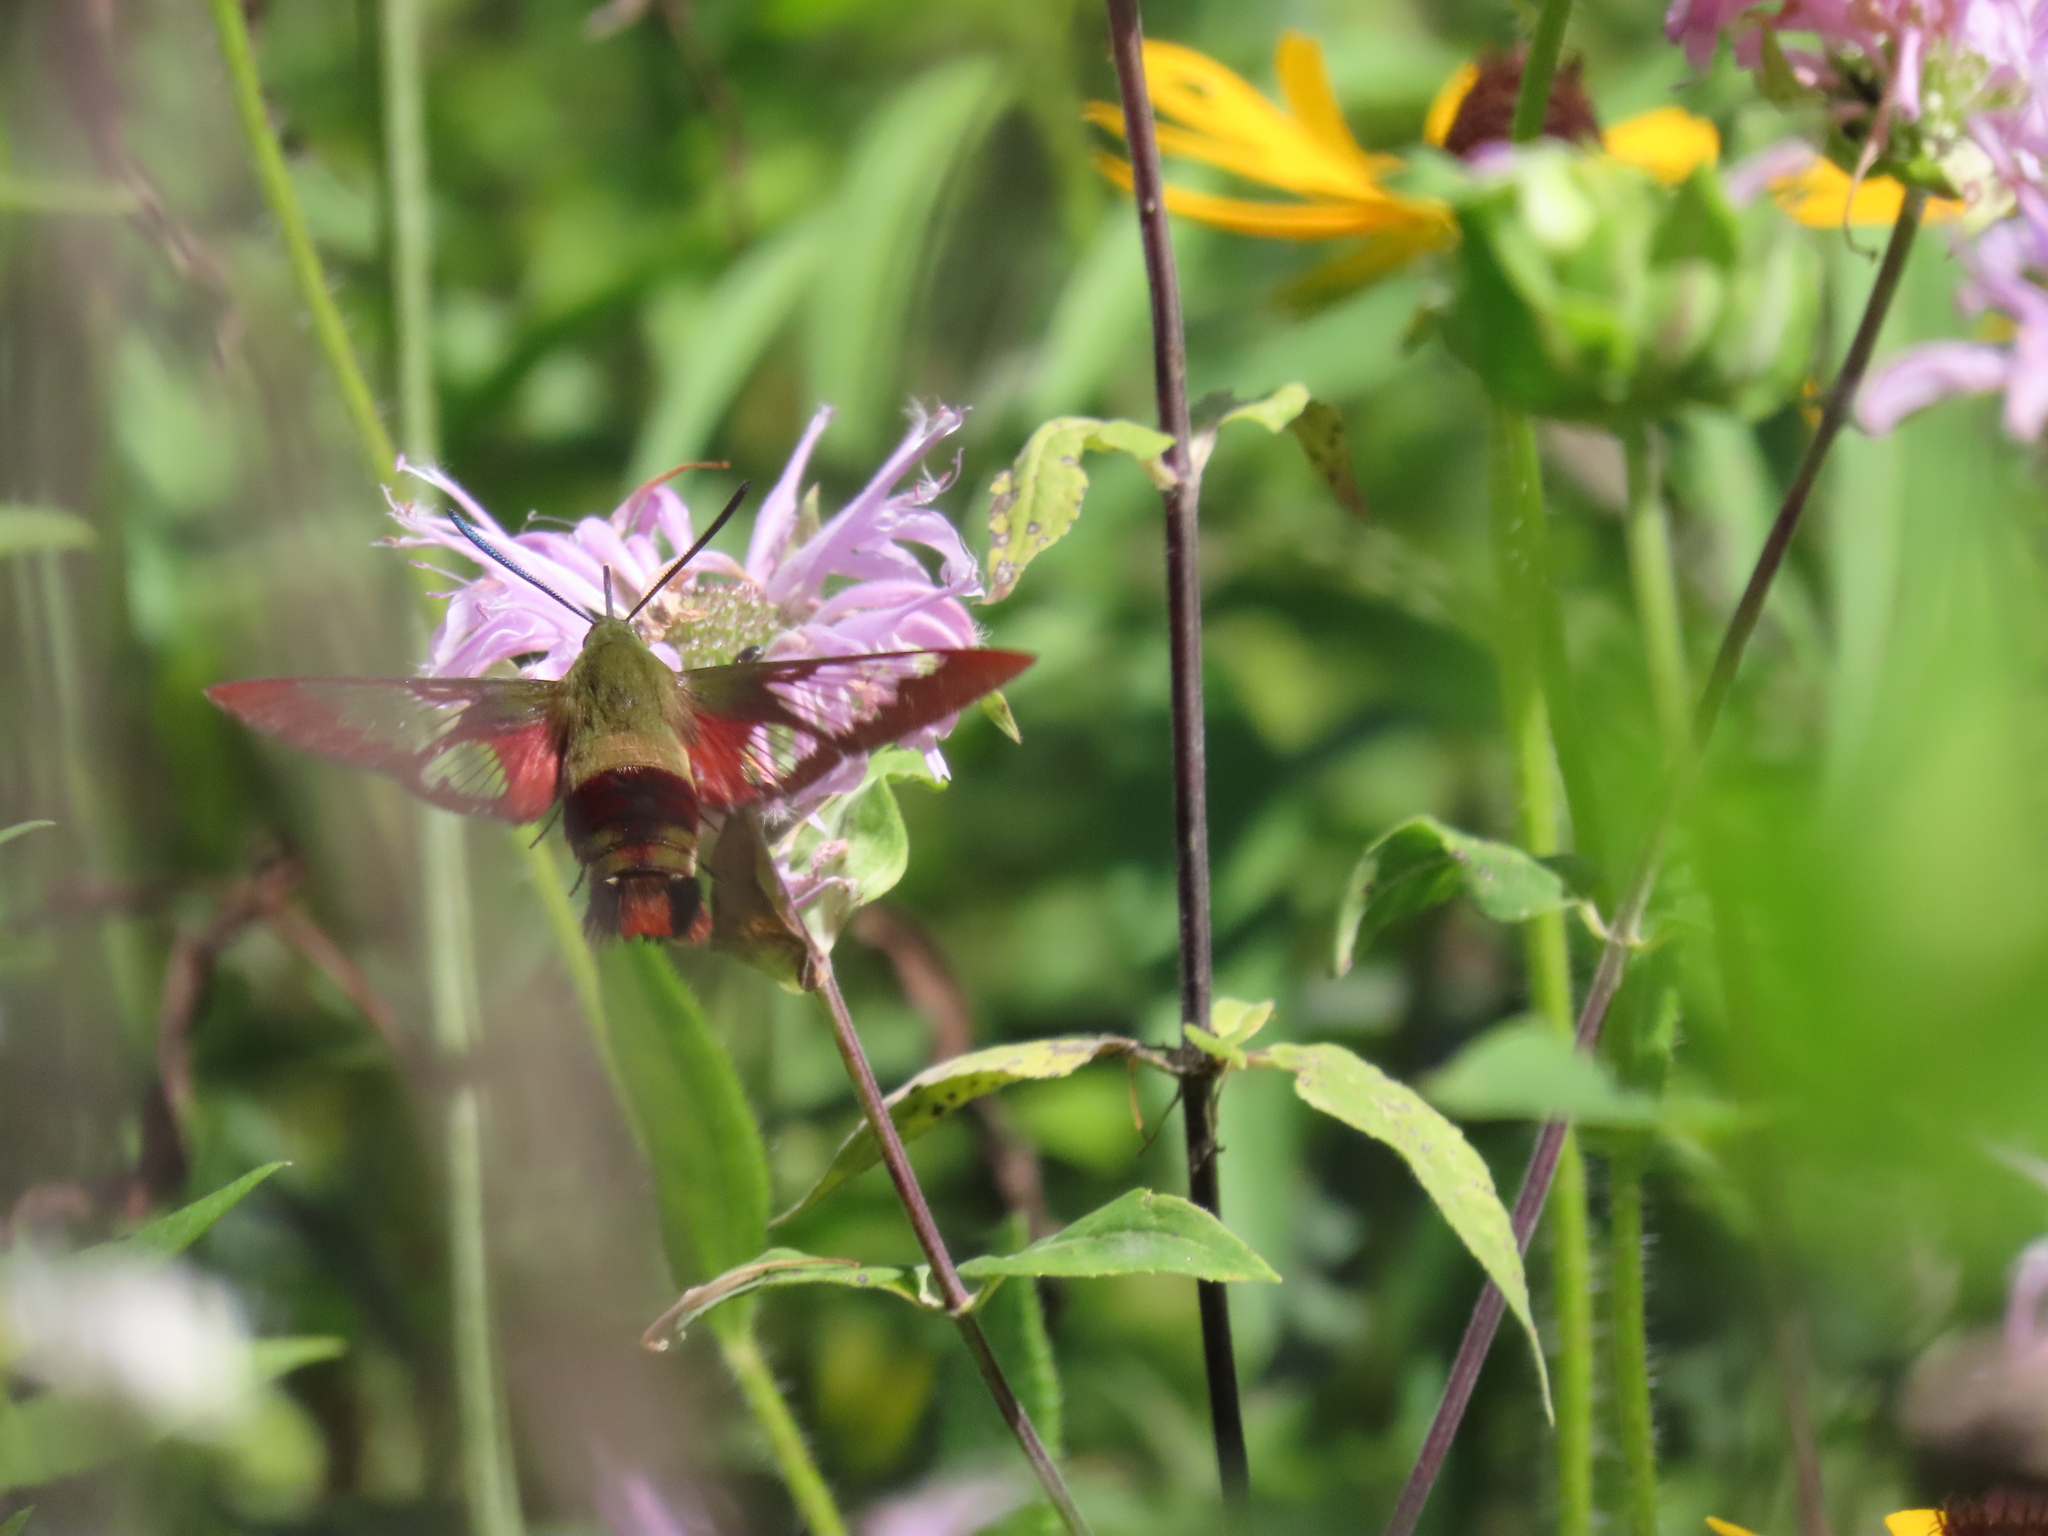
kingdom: Animalia
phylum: Arthropoda
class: Insecta
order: Lepidoptera
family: Sphingidae
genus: Hemaris
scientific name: Hemaris thysbe
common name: Common clear-wing
